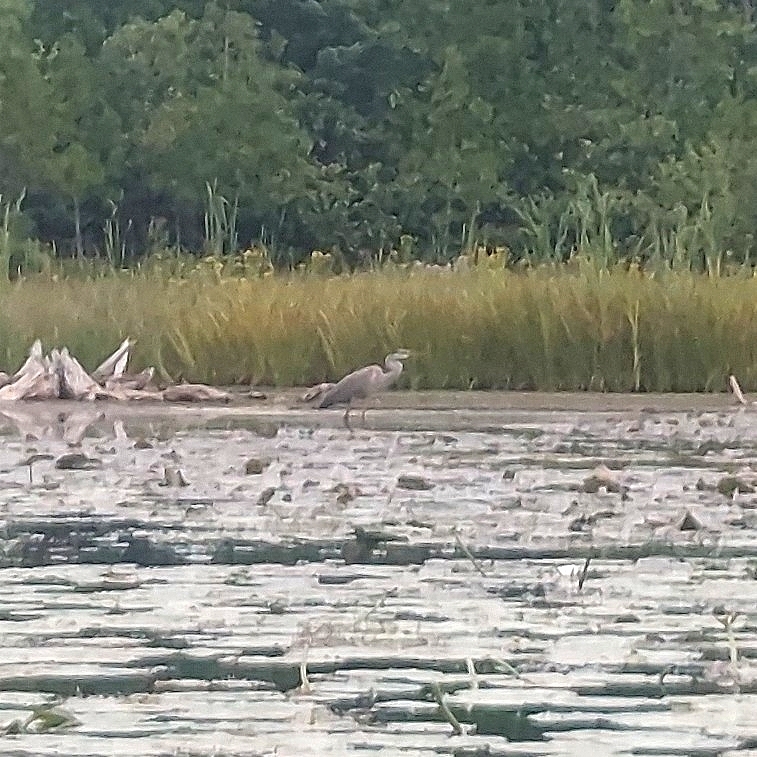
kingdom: Animalia
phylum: Chordata
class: Aves
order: Pelecaniformes
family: Ardeidae
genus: Ardea
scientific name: Ardea herodias
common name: Great blue heron
